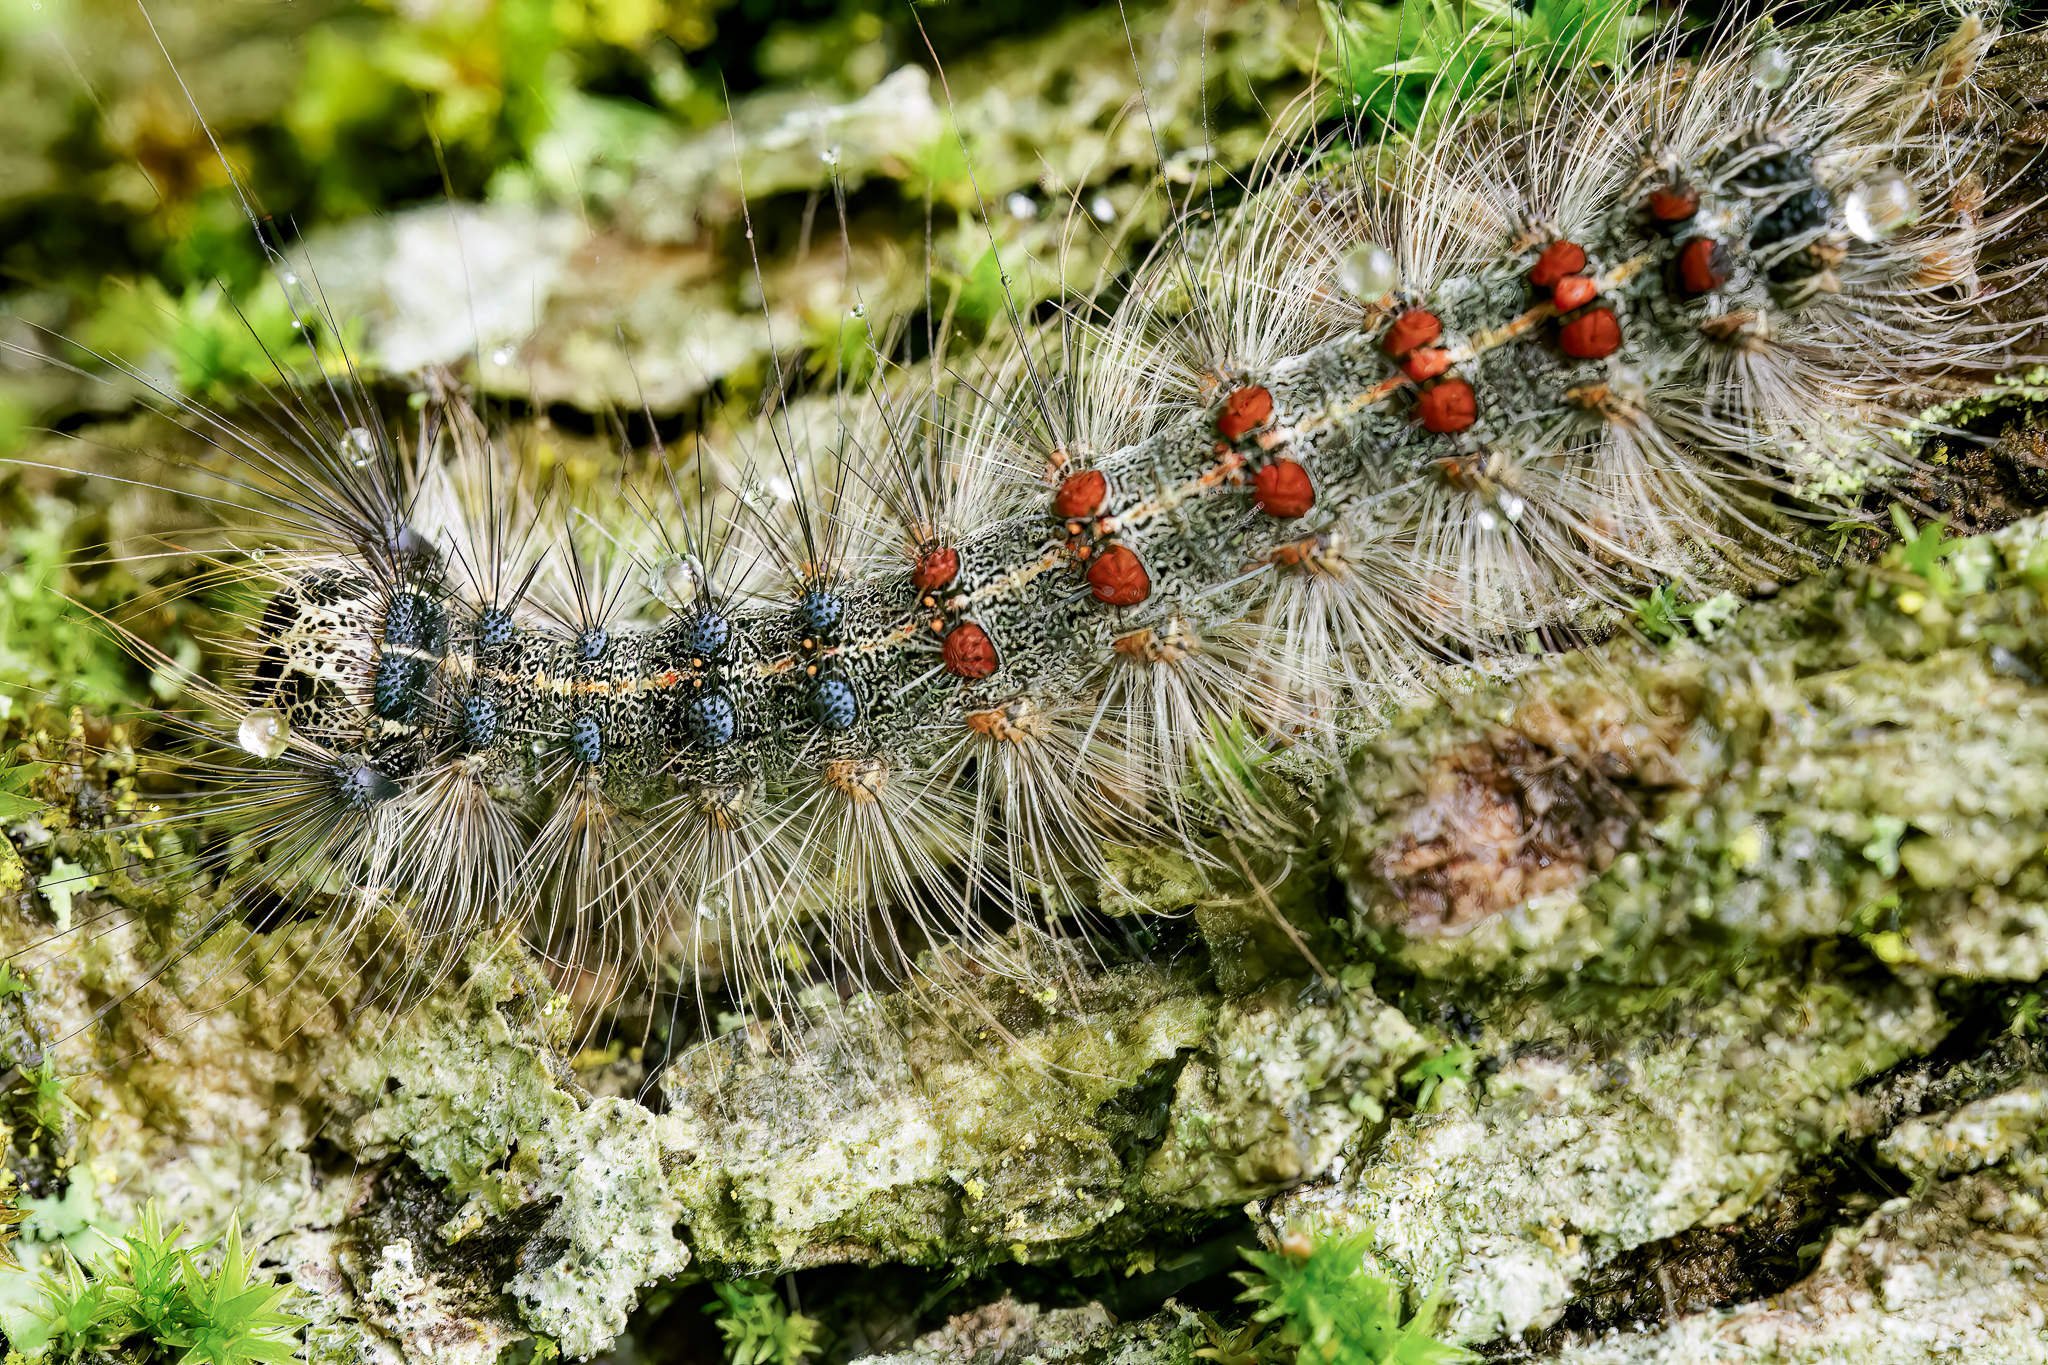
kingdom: Animalia
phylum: Arthropoda
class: Insecta
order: Lepidoptera
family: Erebidae
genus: Lymantria
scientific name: Lymantria dispar
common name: Gypsy moth
